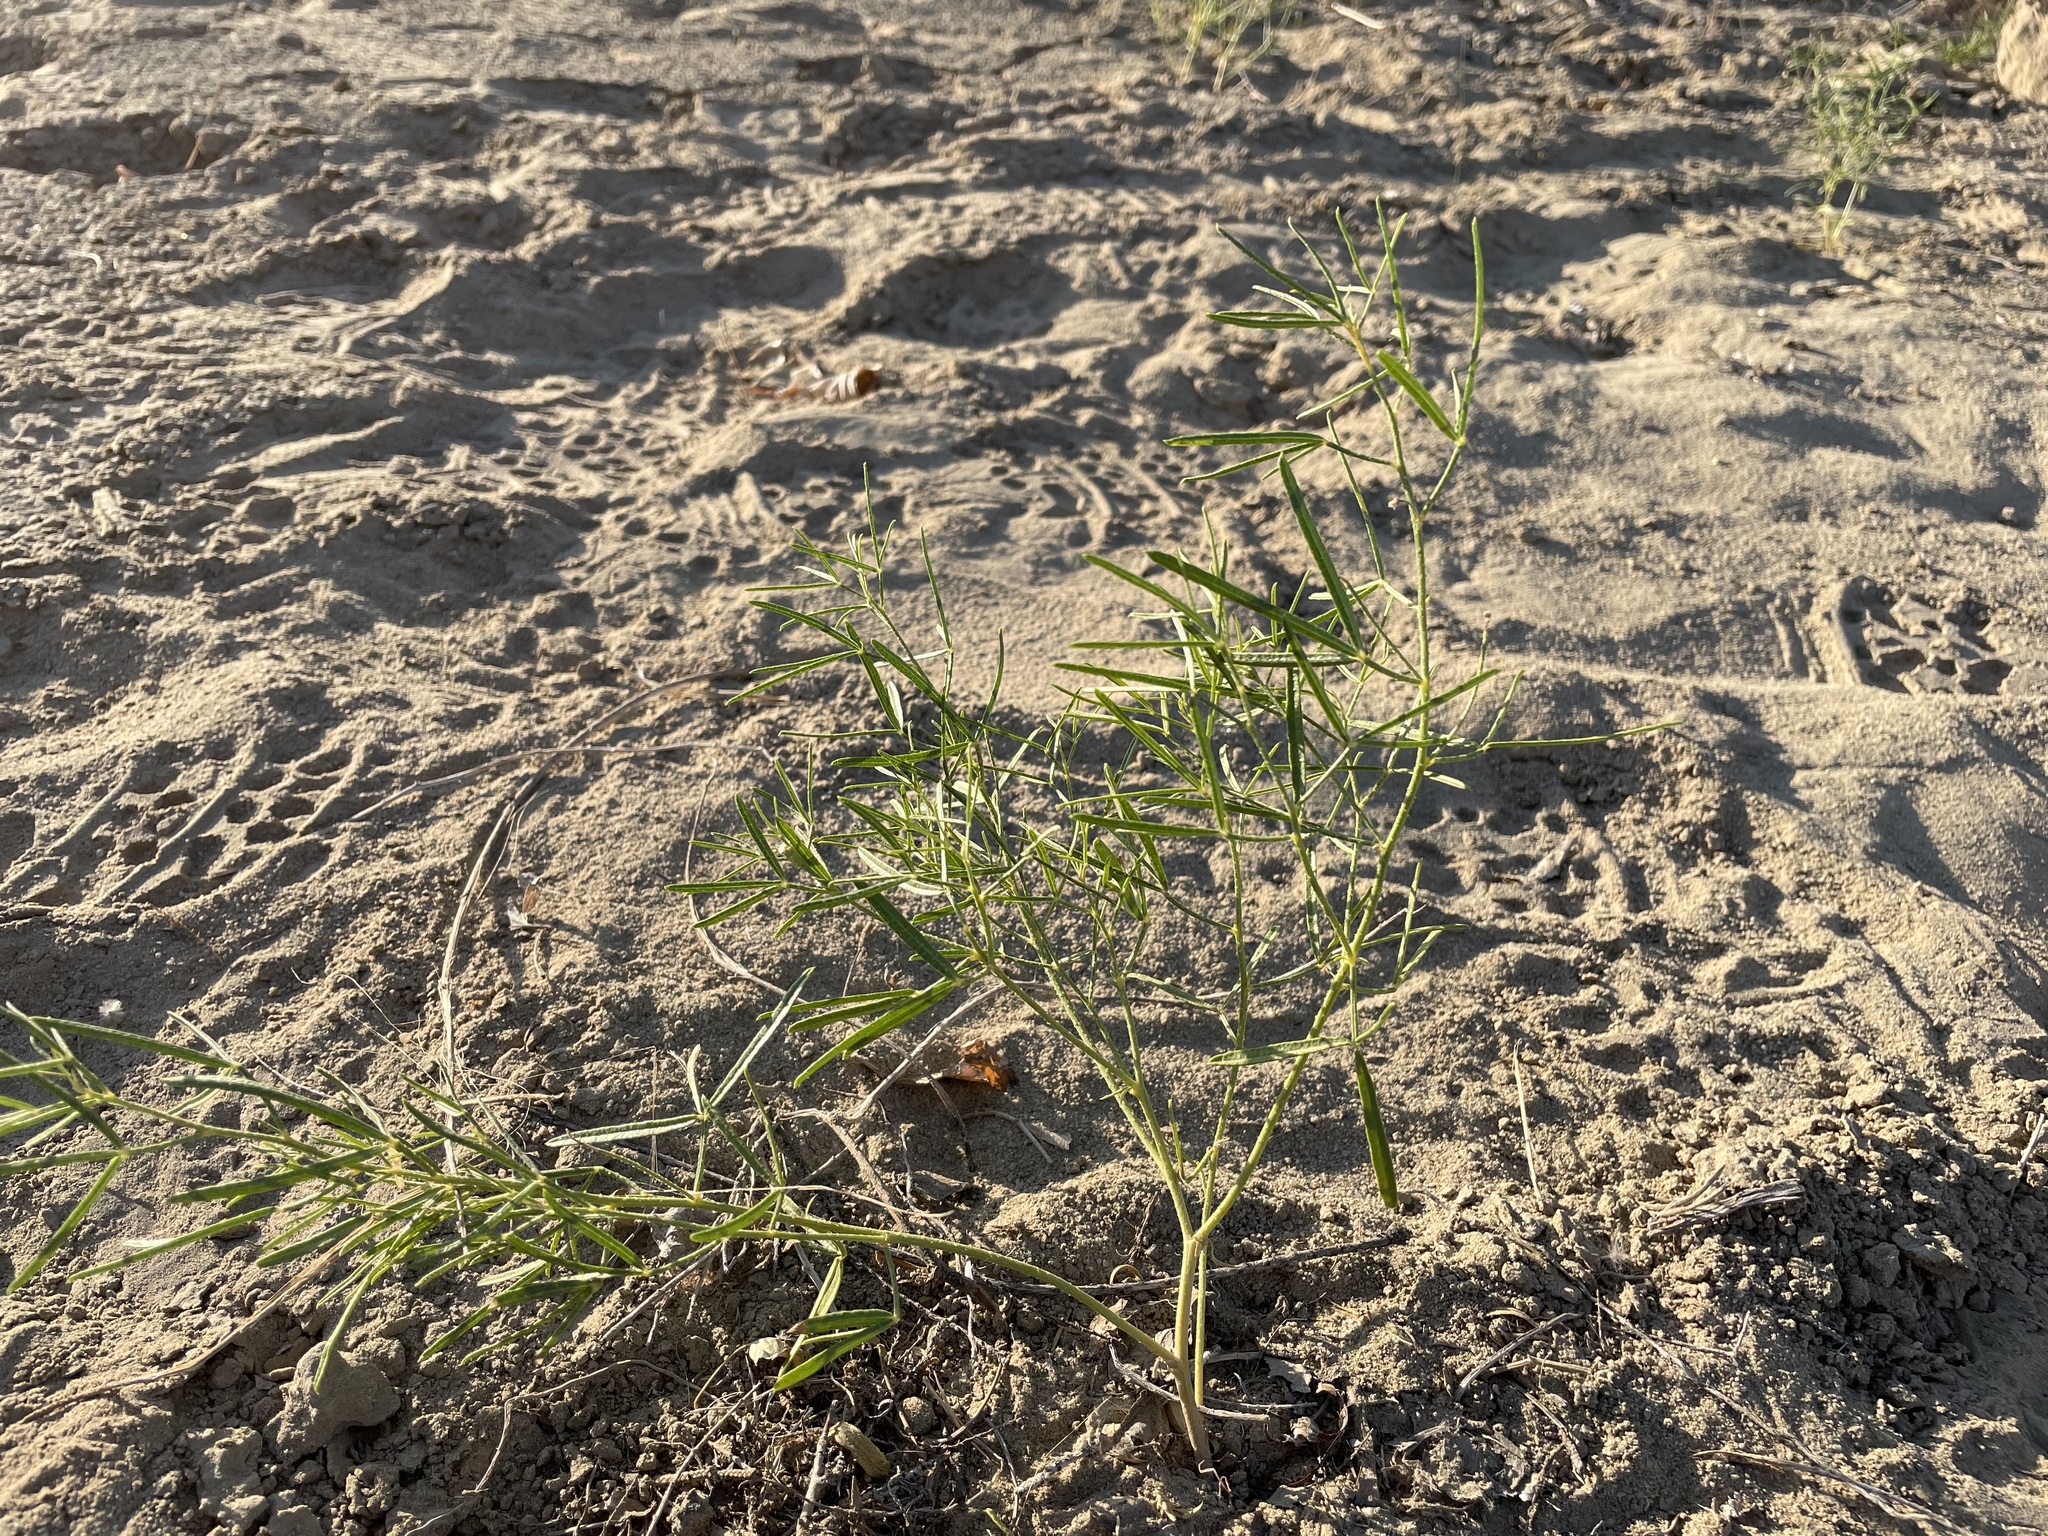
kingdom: Plantae
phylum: Tracheophyta
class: Magnoliopsida
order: Fabales
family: Fabaceae
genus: Ladeania
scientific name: Ladeania lanceolata
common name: Dune scurf-pea
